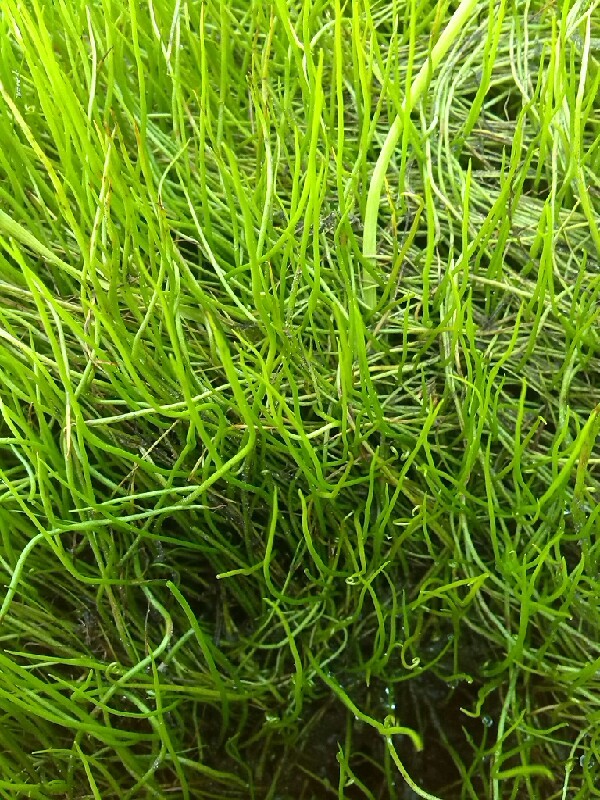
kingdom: Plantae
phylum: Tracheophyta
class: Polypodiopsida
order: Salviniales
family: Marsileaceae
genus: Pilularia
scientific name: Pilularia globulifera
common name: Pillwort
